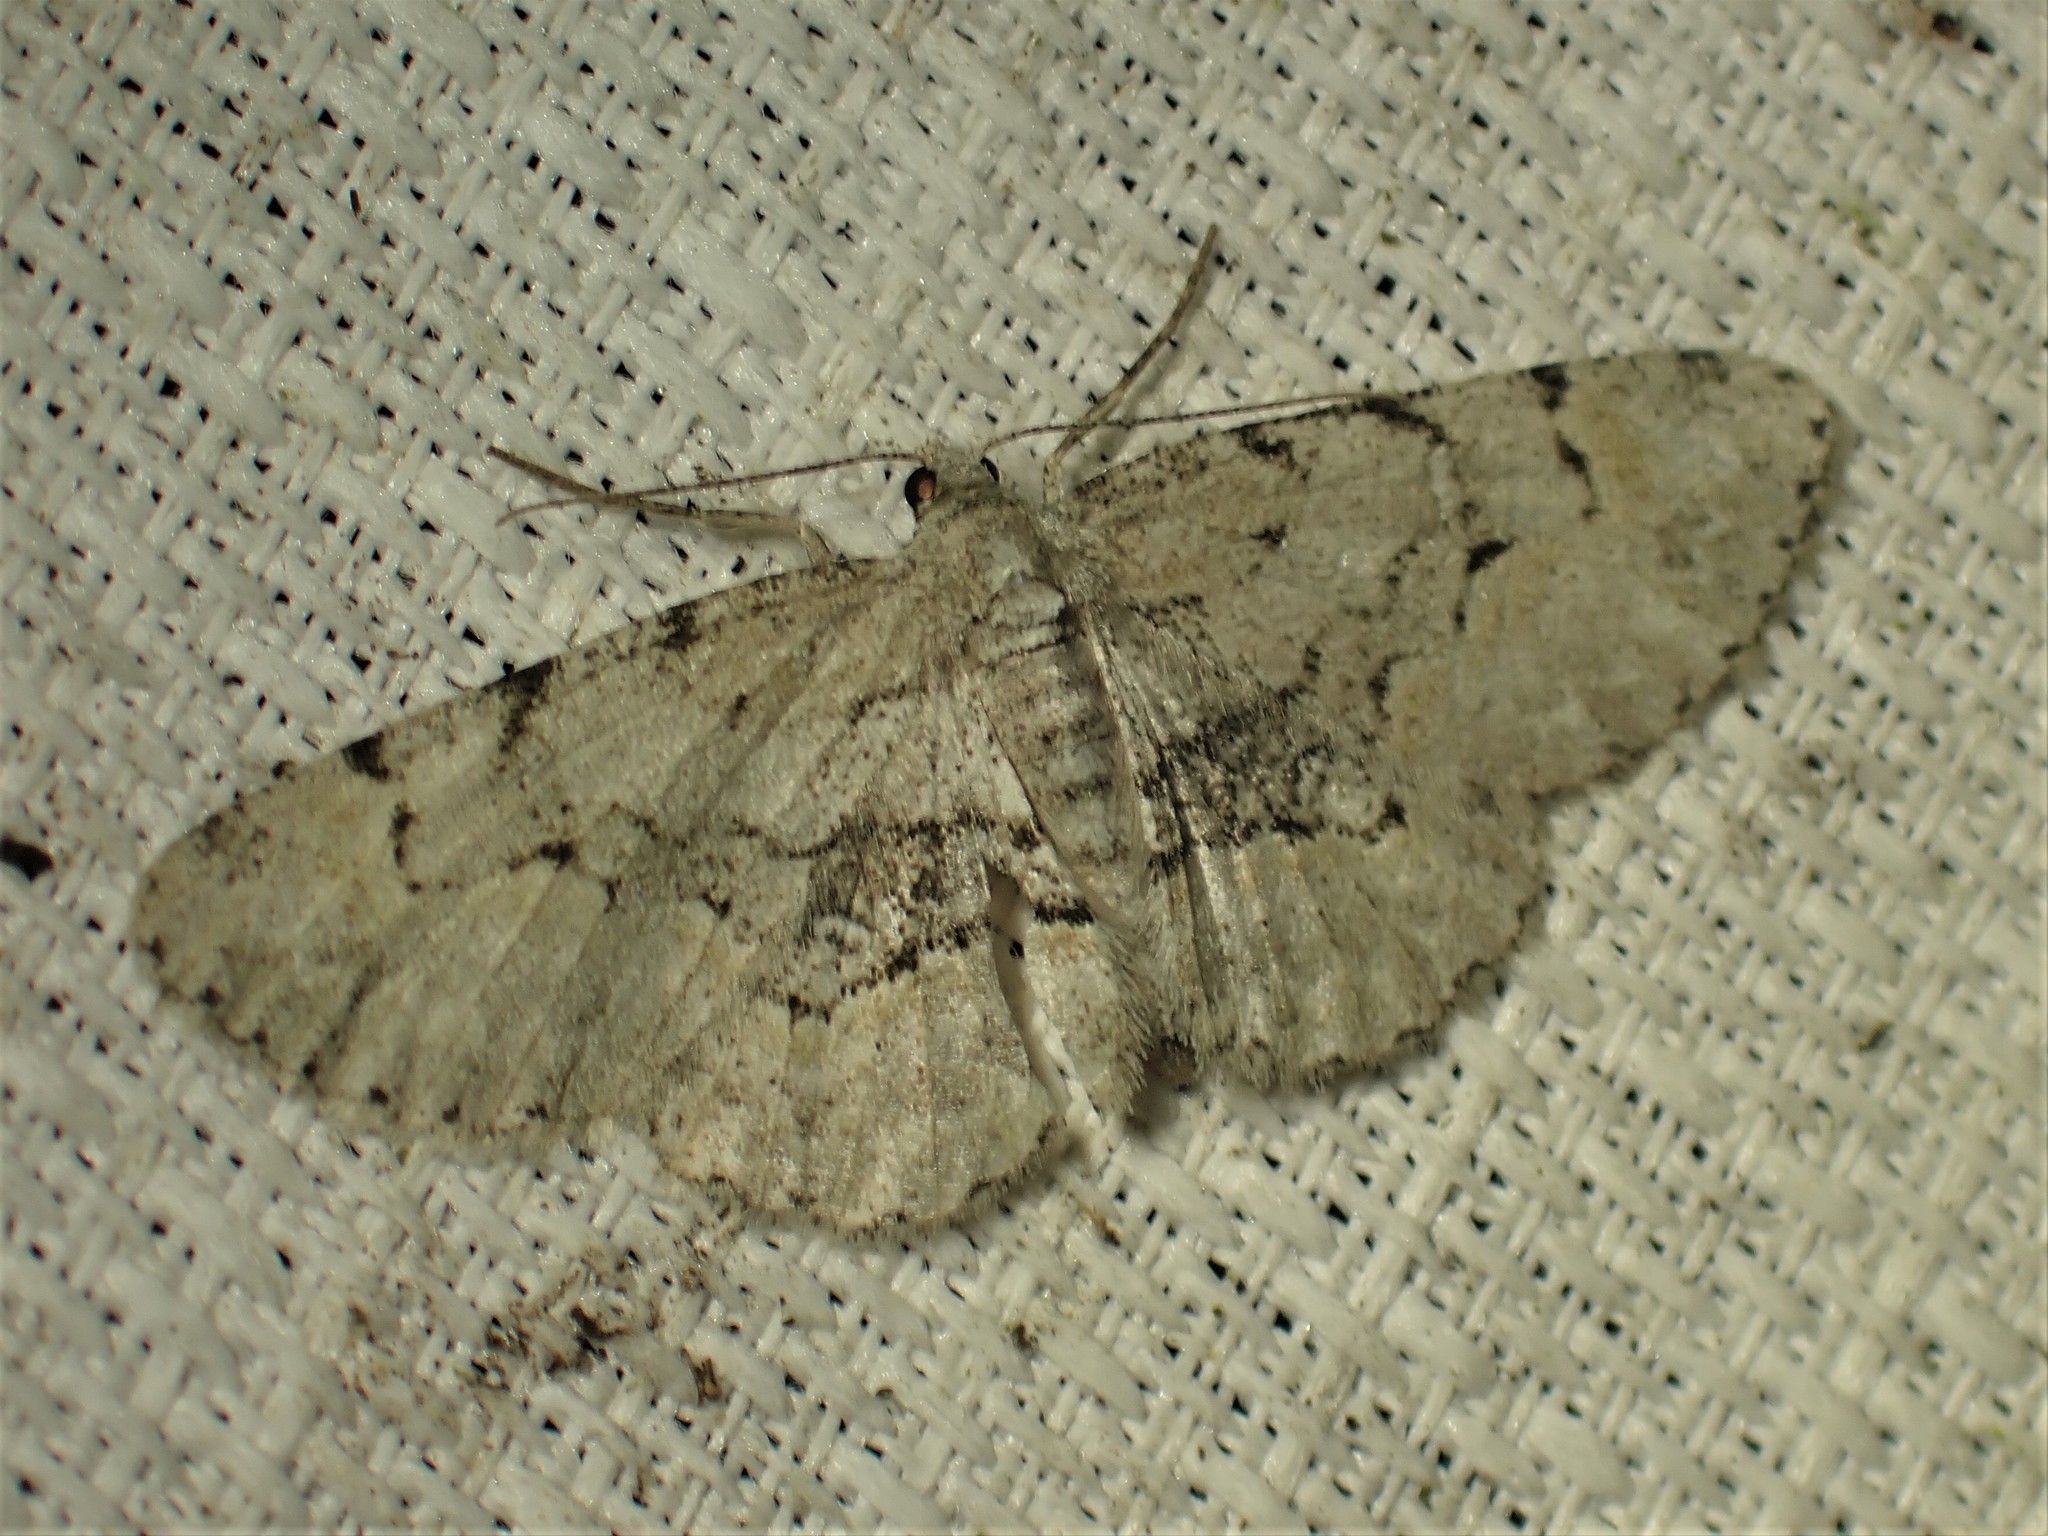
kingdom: Animalia
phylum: Arthropoda
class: Insecta
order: Lepidoptera
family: Geometridae
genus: Iridopsis
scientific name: Iridopsis ephyraria
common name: Pale-winged gray
